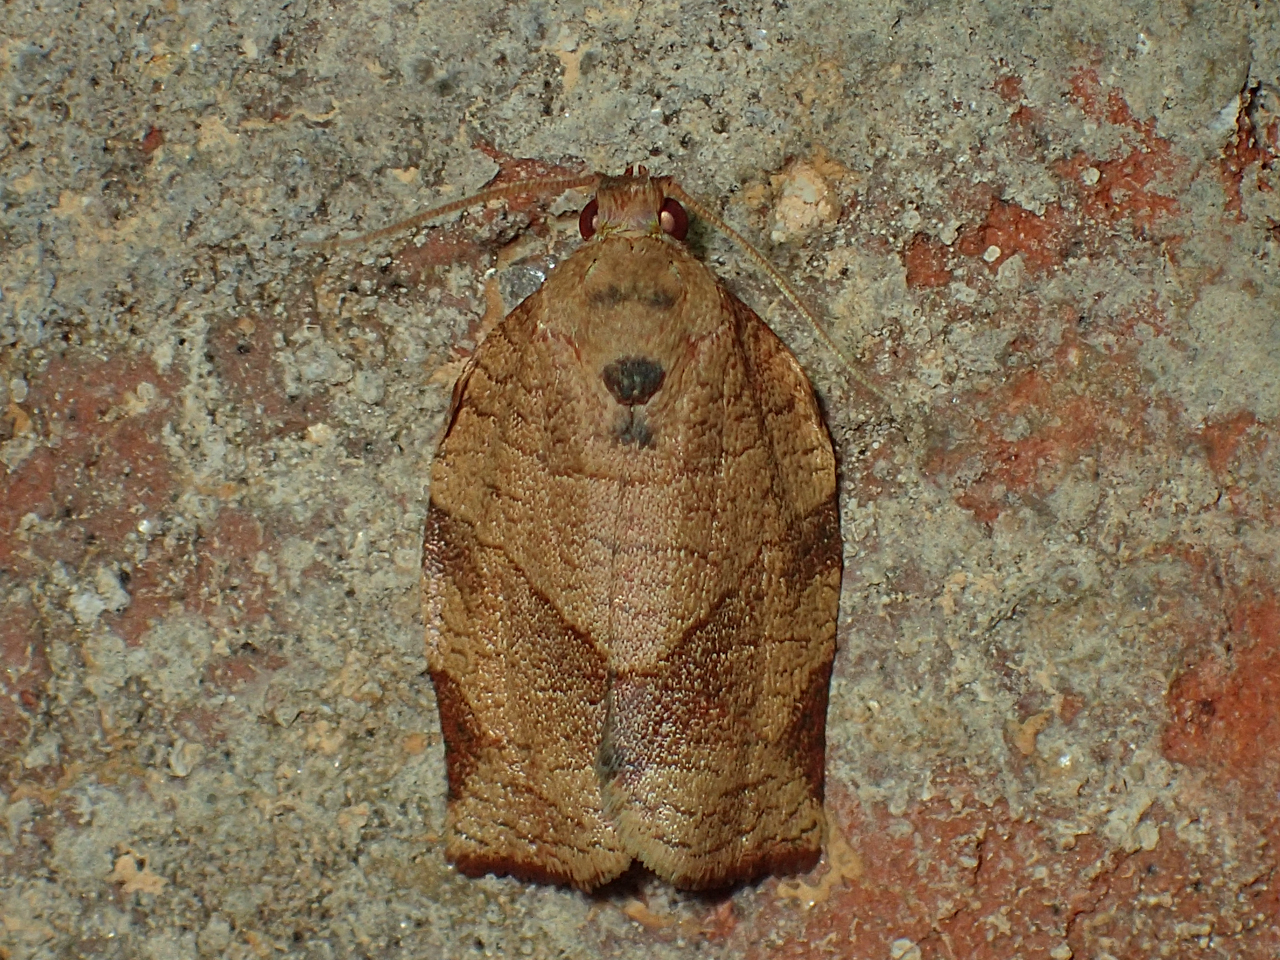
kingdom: Animalia
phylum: Arthropoda
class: Insecta
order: Lepidoptera
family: Tortricidae
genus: Choristoneura
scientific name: Choristoneura rosaceana
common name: Oblique-banded leafroller moth
